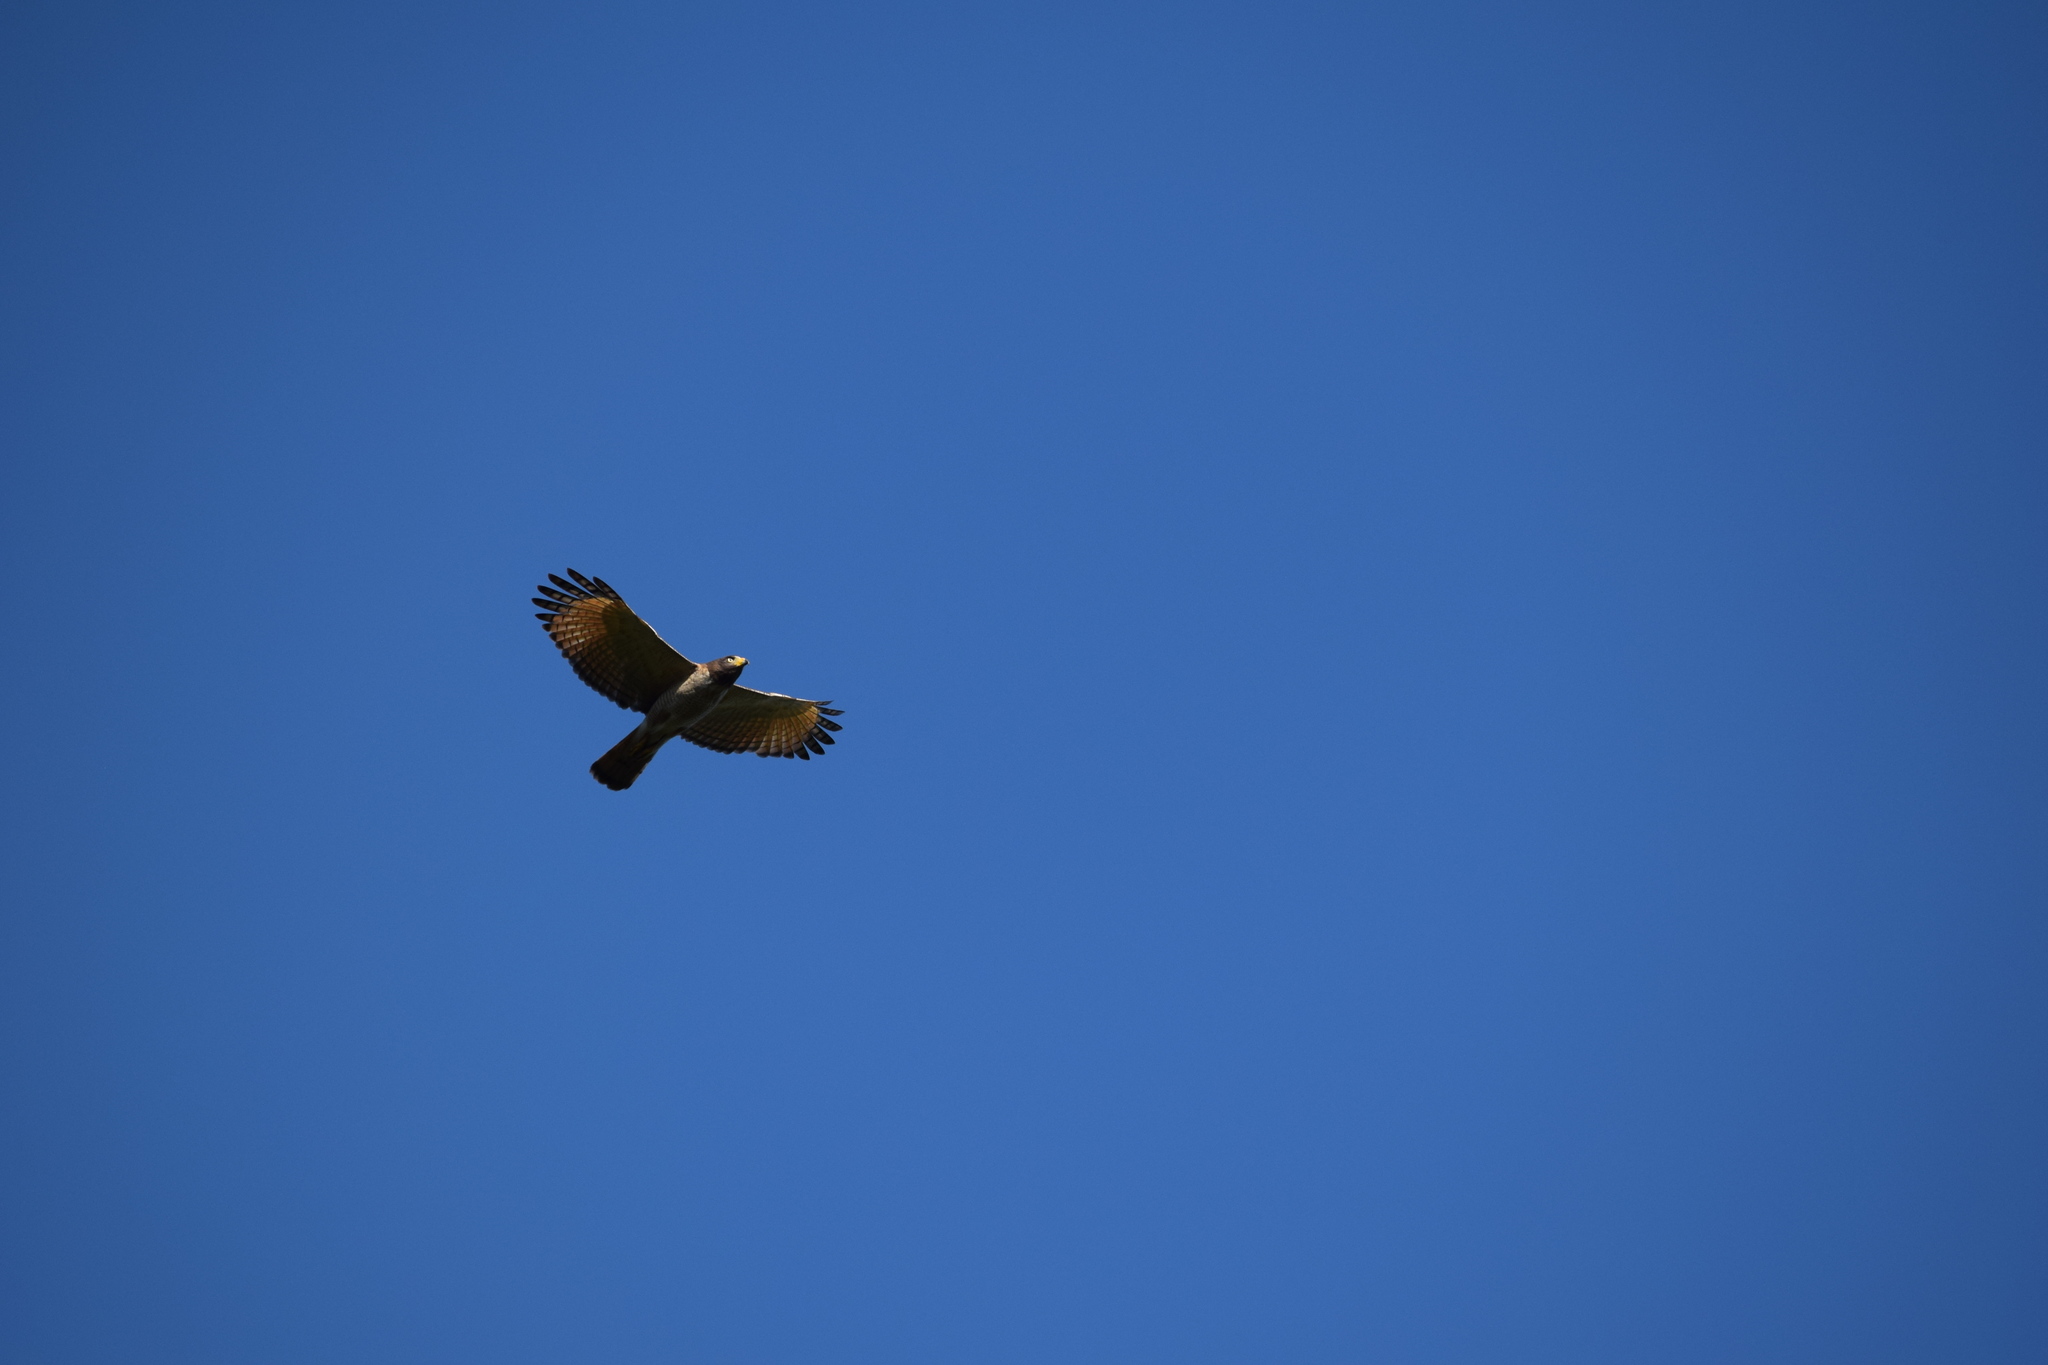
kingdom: Animalia
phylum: Chordata
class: Aves
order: Accipitriformes
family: Accipitridae
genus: Rupornis
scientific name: Rupornis magnirostris
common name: Roadside hawk
